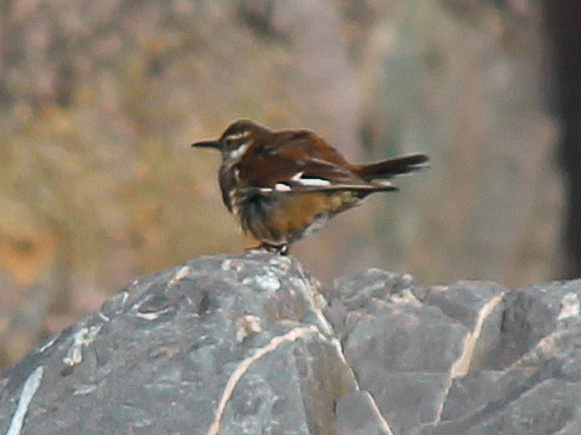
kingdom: Animalia
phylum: Chordata
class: Aves
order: Passeriformes
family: Furnariidae
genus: Cinclodes
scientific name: Cinclodes atacamensis
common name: White-winged cinclodes
